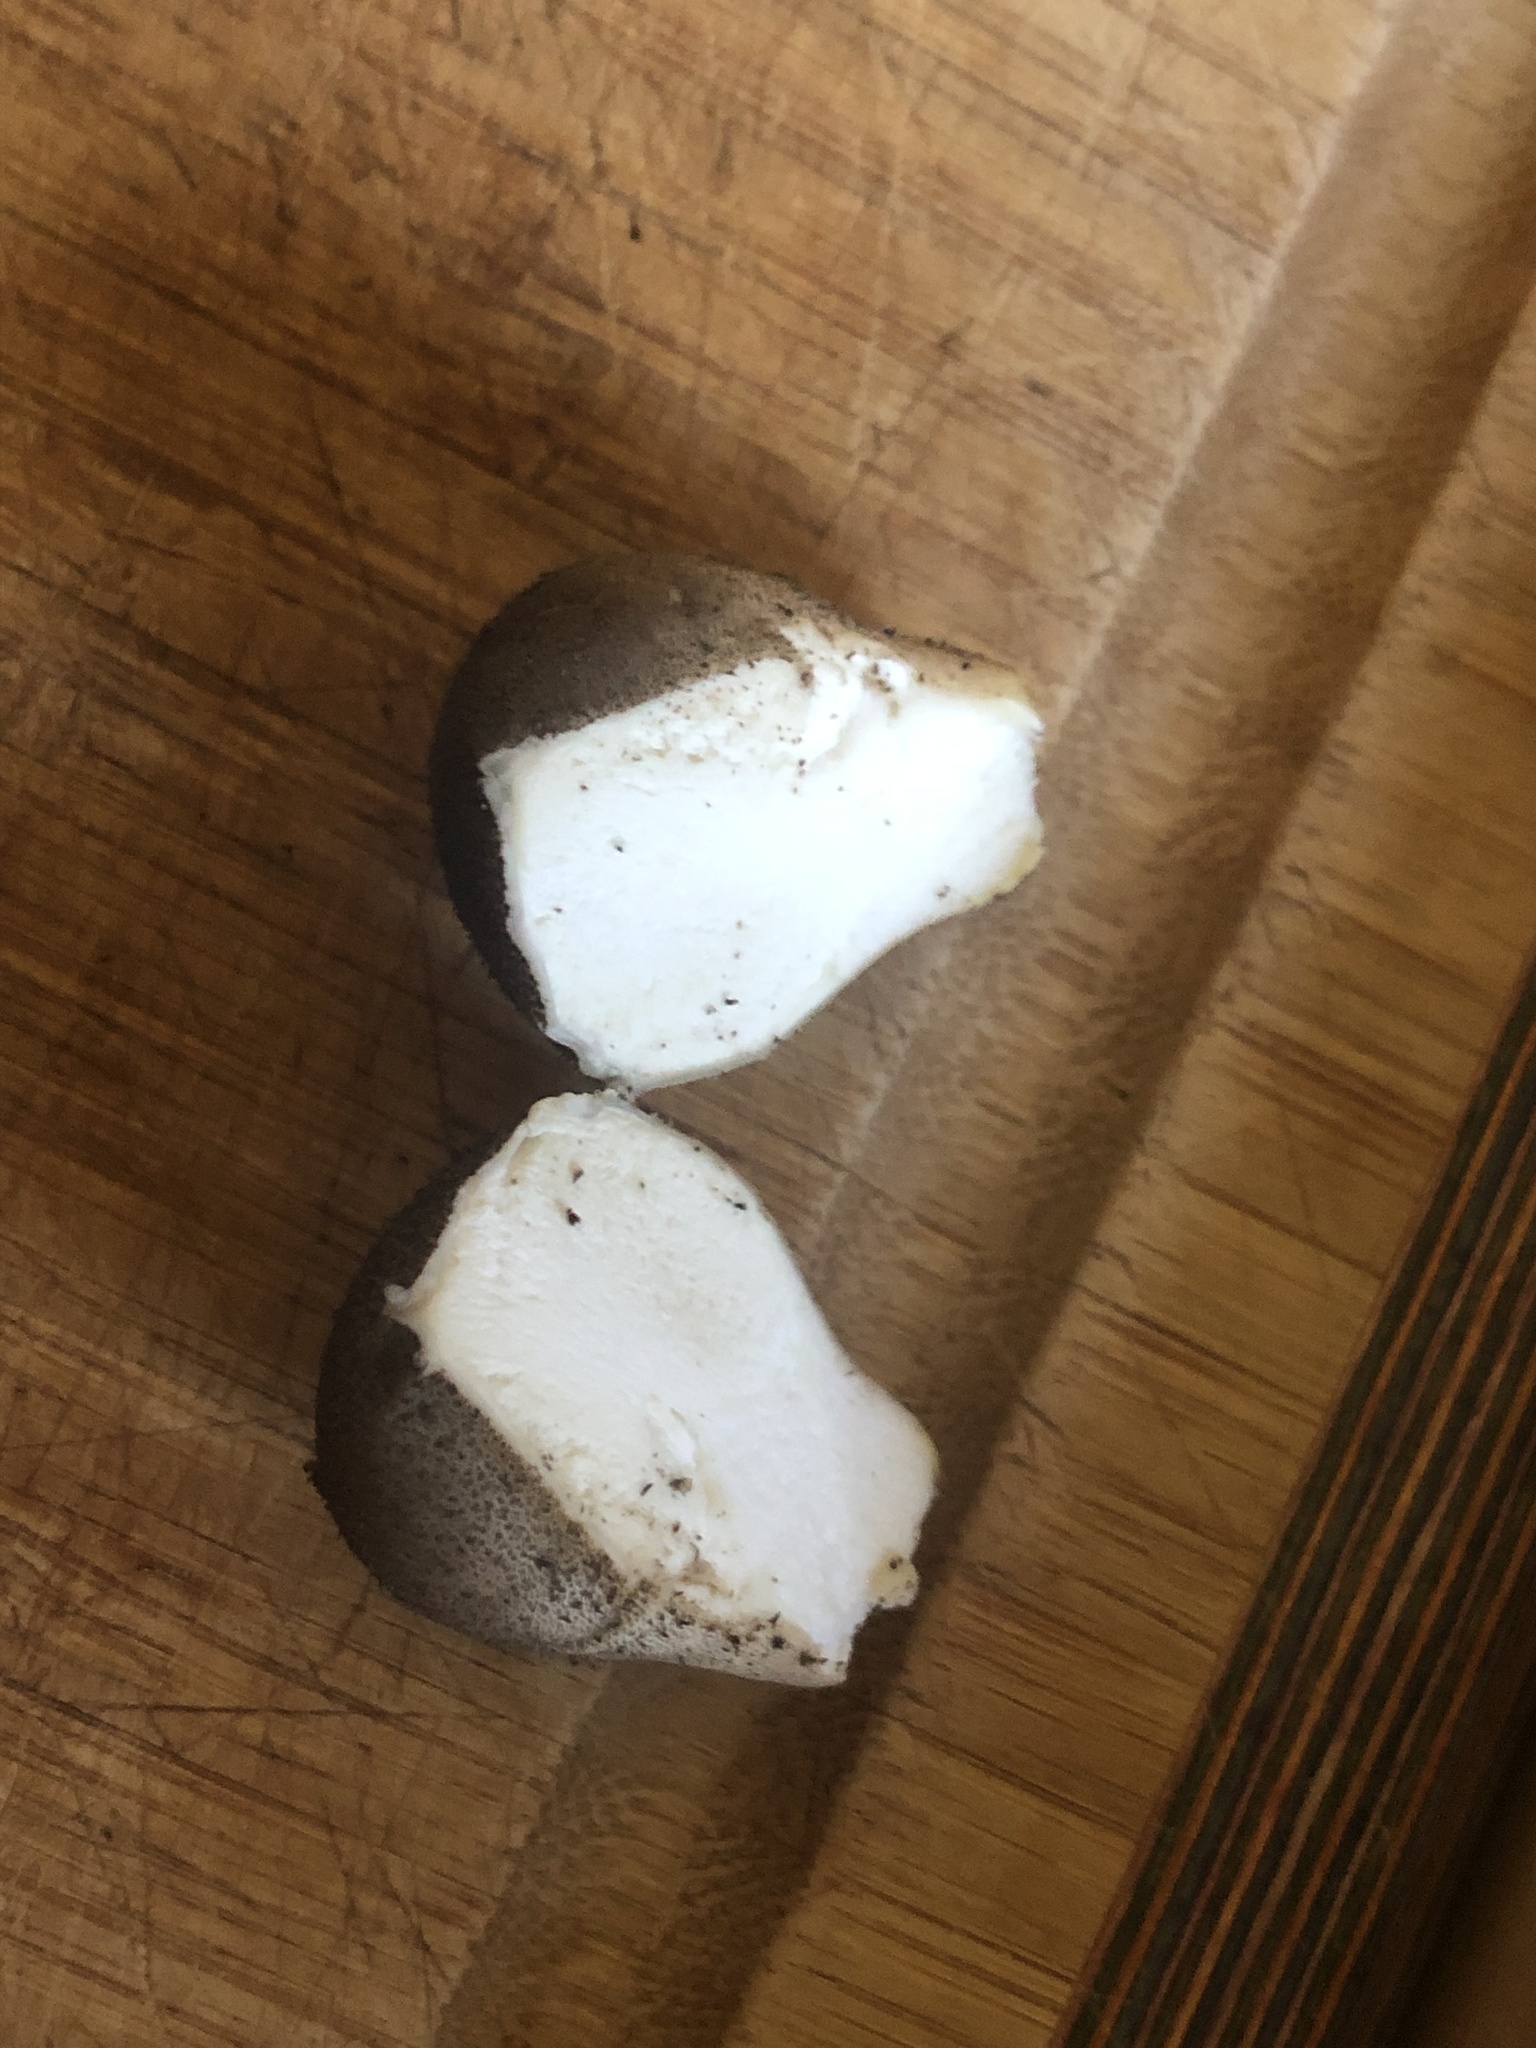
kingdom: Fungi
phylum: Basidiomycota
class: Agaricomycetes
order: Agaricales
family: Lycoperdaceae
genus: Lycoperdon
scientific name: Lycoperdon umbrinum
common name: Umber-brown puffball
